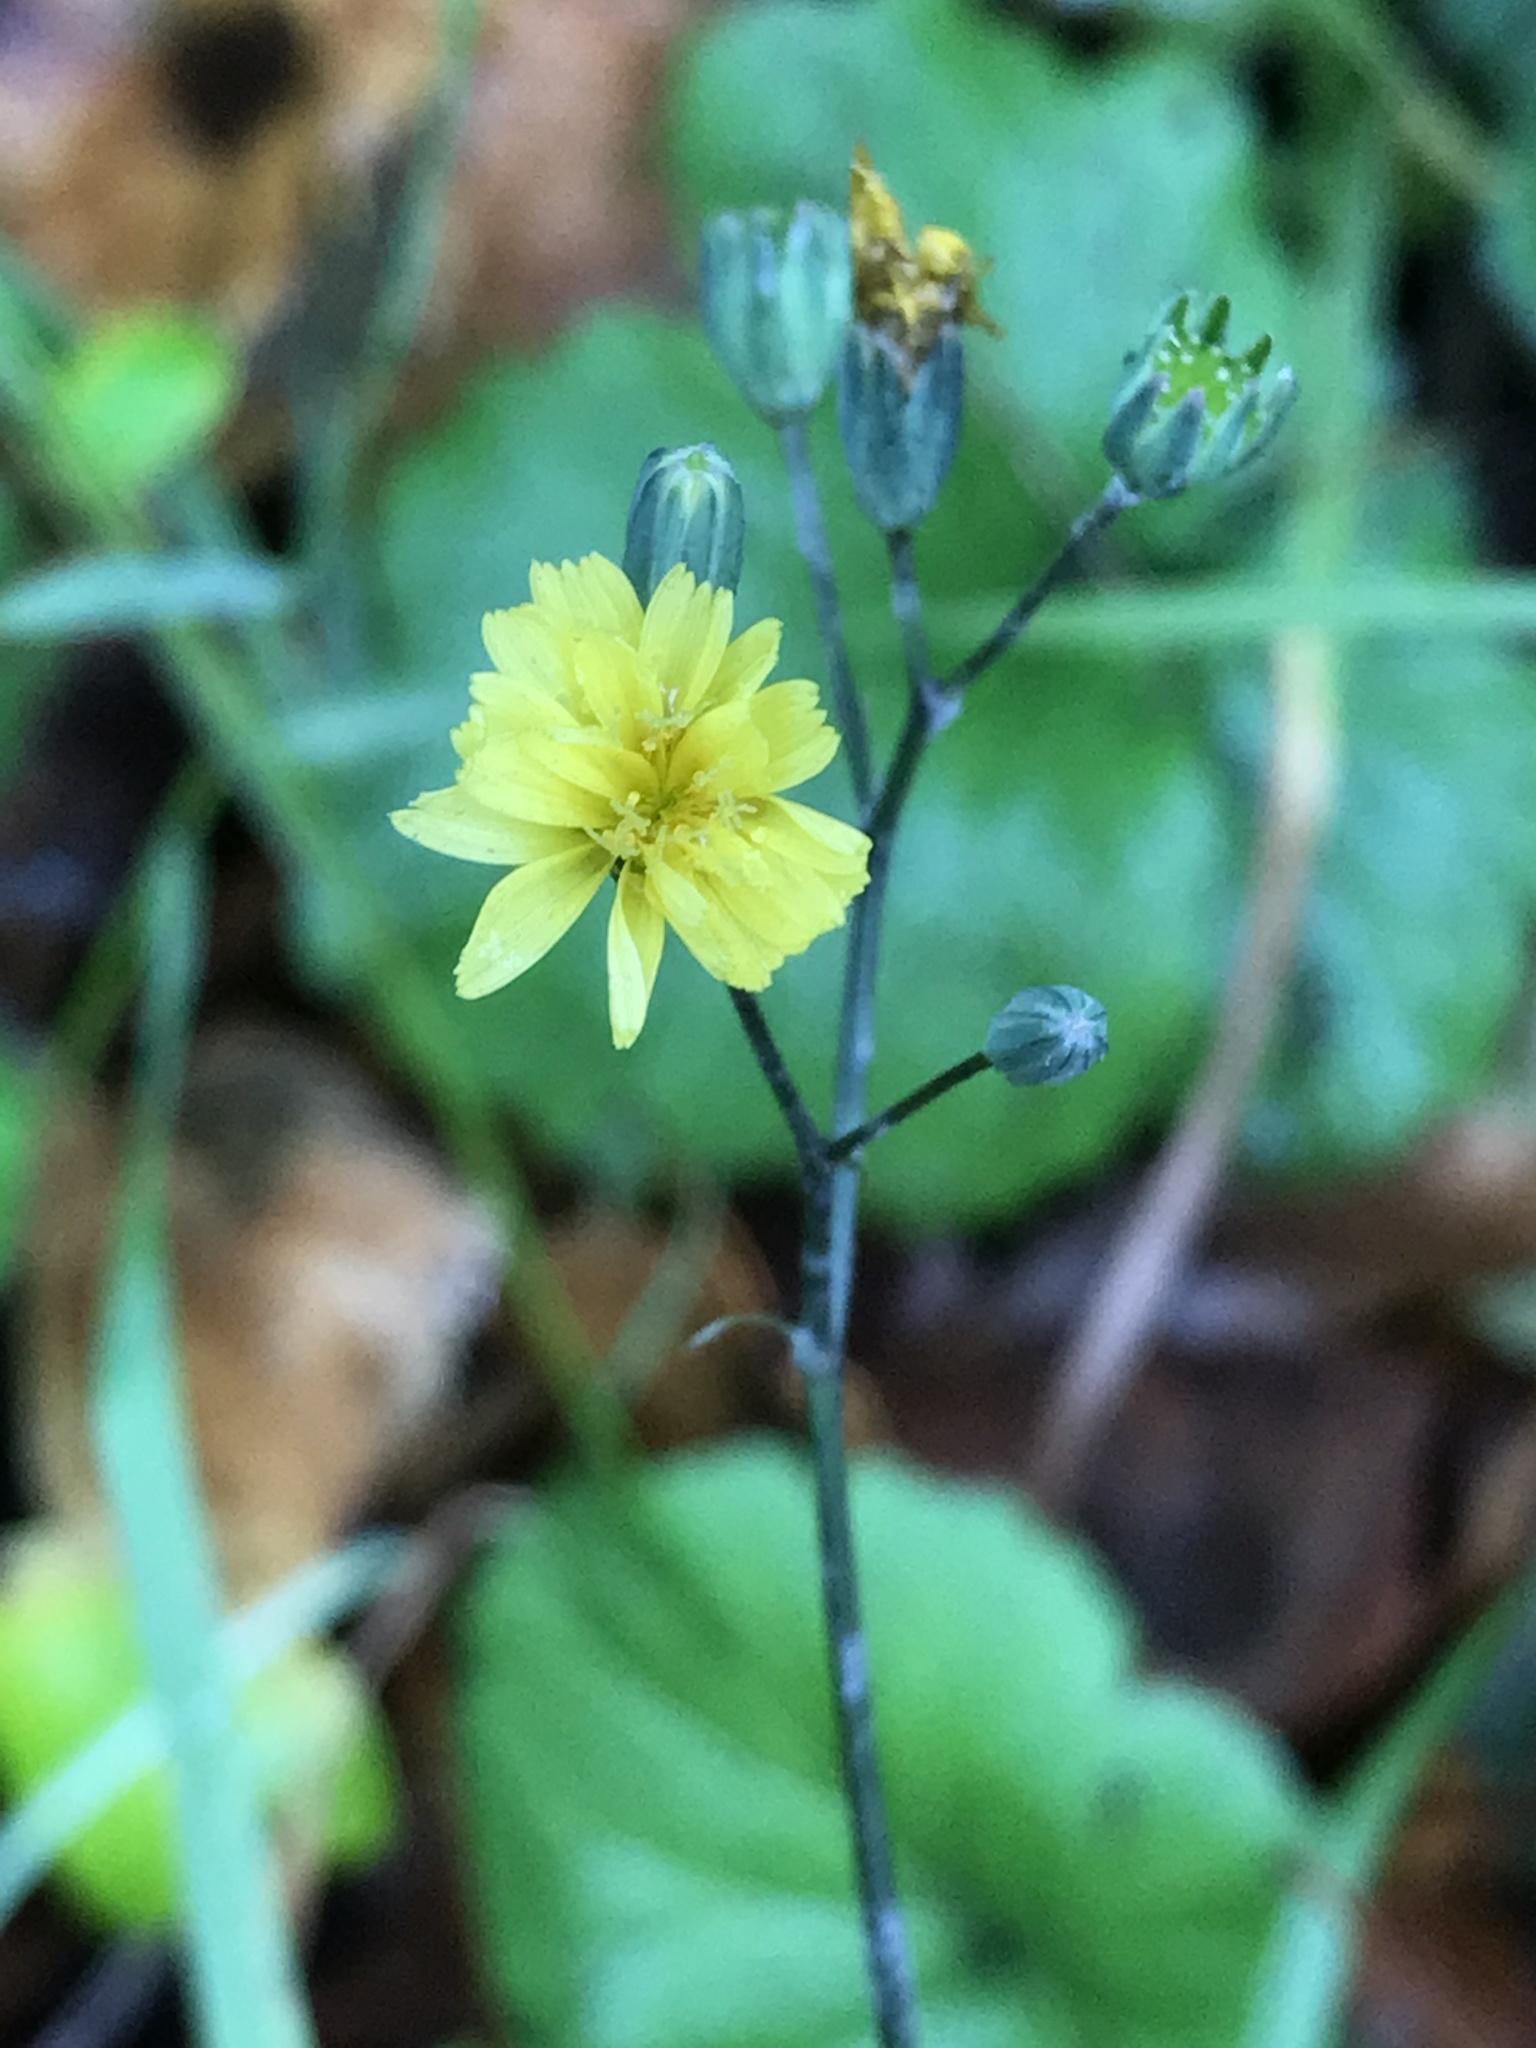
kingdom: Plantae
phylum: Tracheophyta
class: Magnoliopsida
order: Asterales
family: Asteraceae
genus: Lapsana
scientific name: Lapsana communis
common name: Nipplewort
